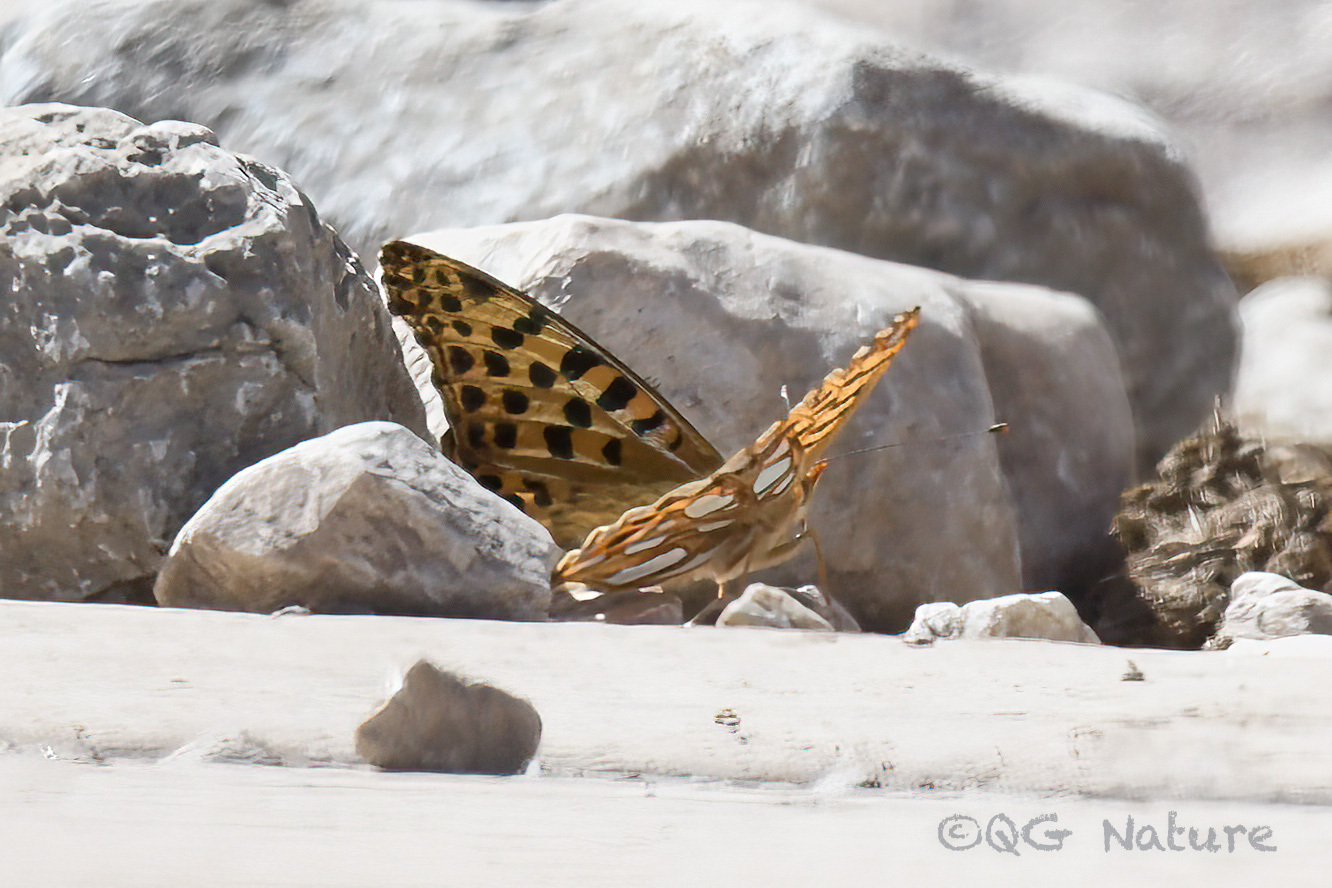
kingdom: Animalia
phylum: Arthropoda
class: Insecta
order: Lepidoptera
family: Nymphalidae
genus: Issoria
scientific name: Issoria
